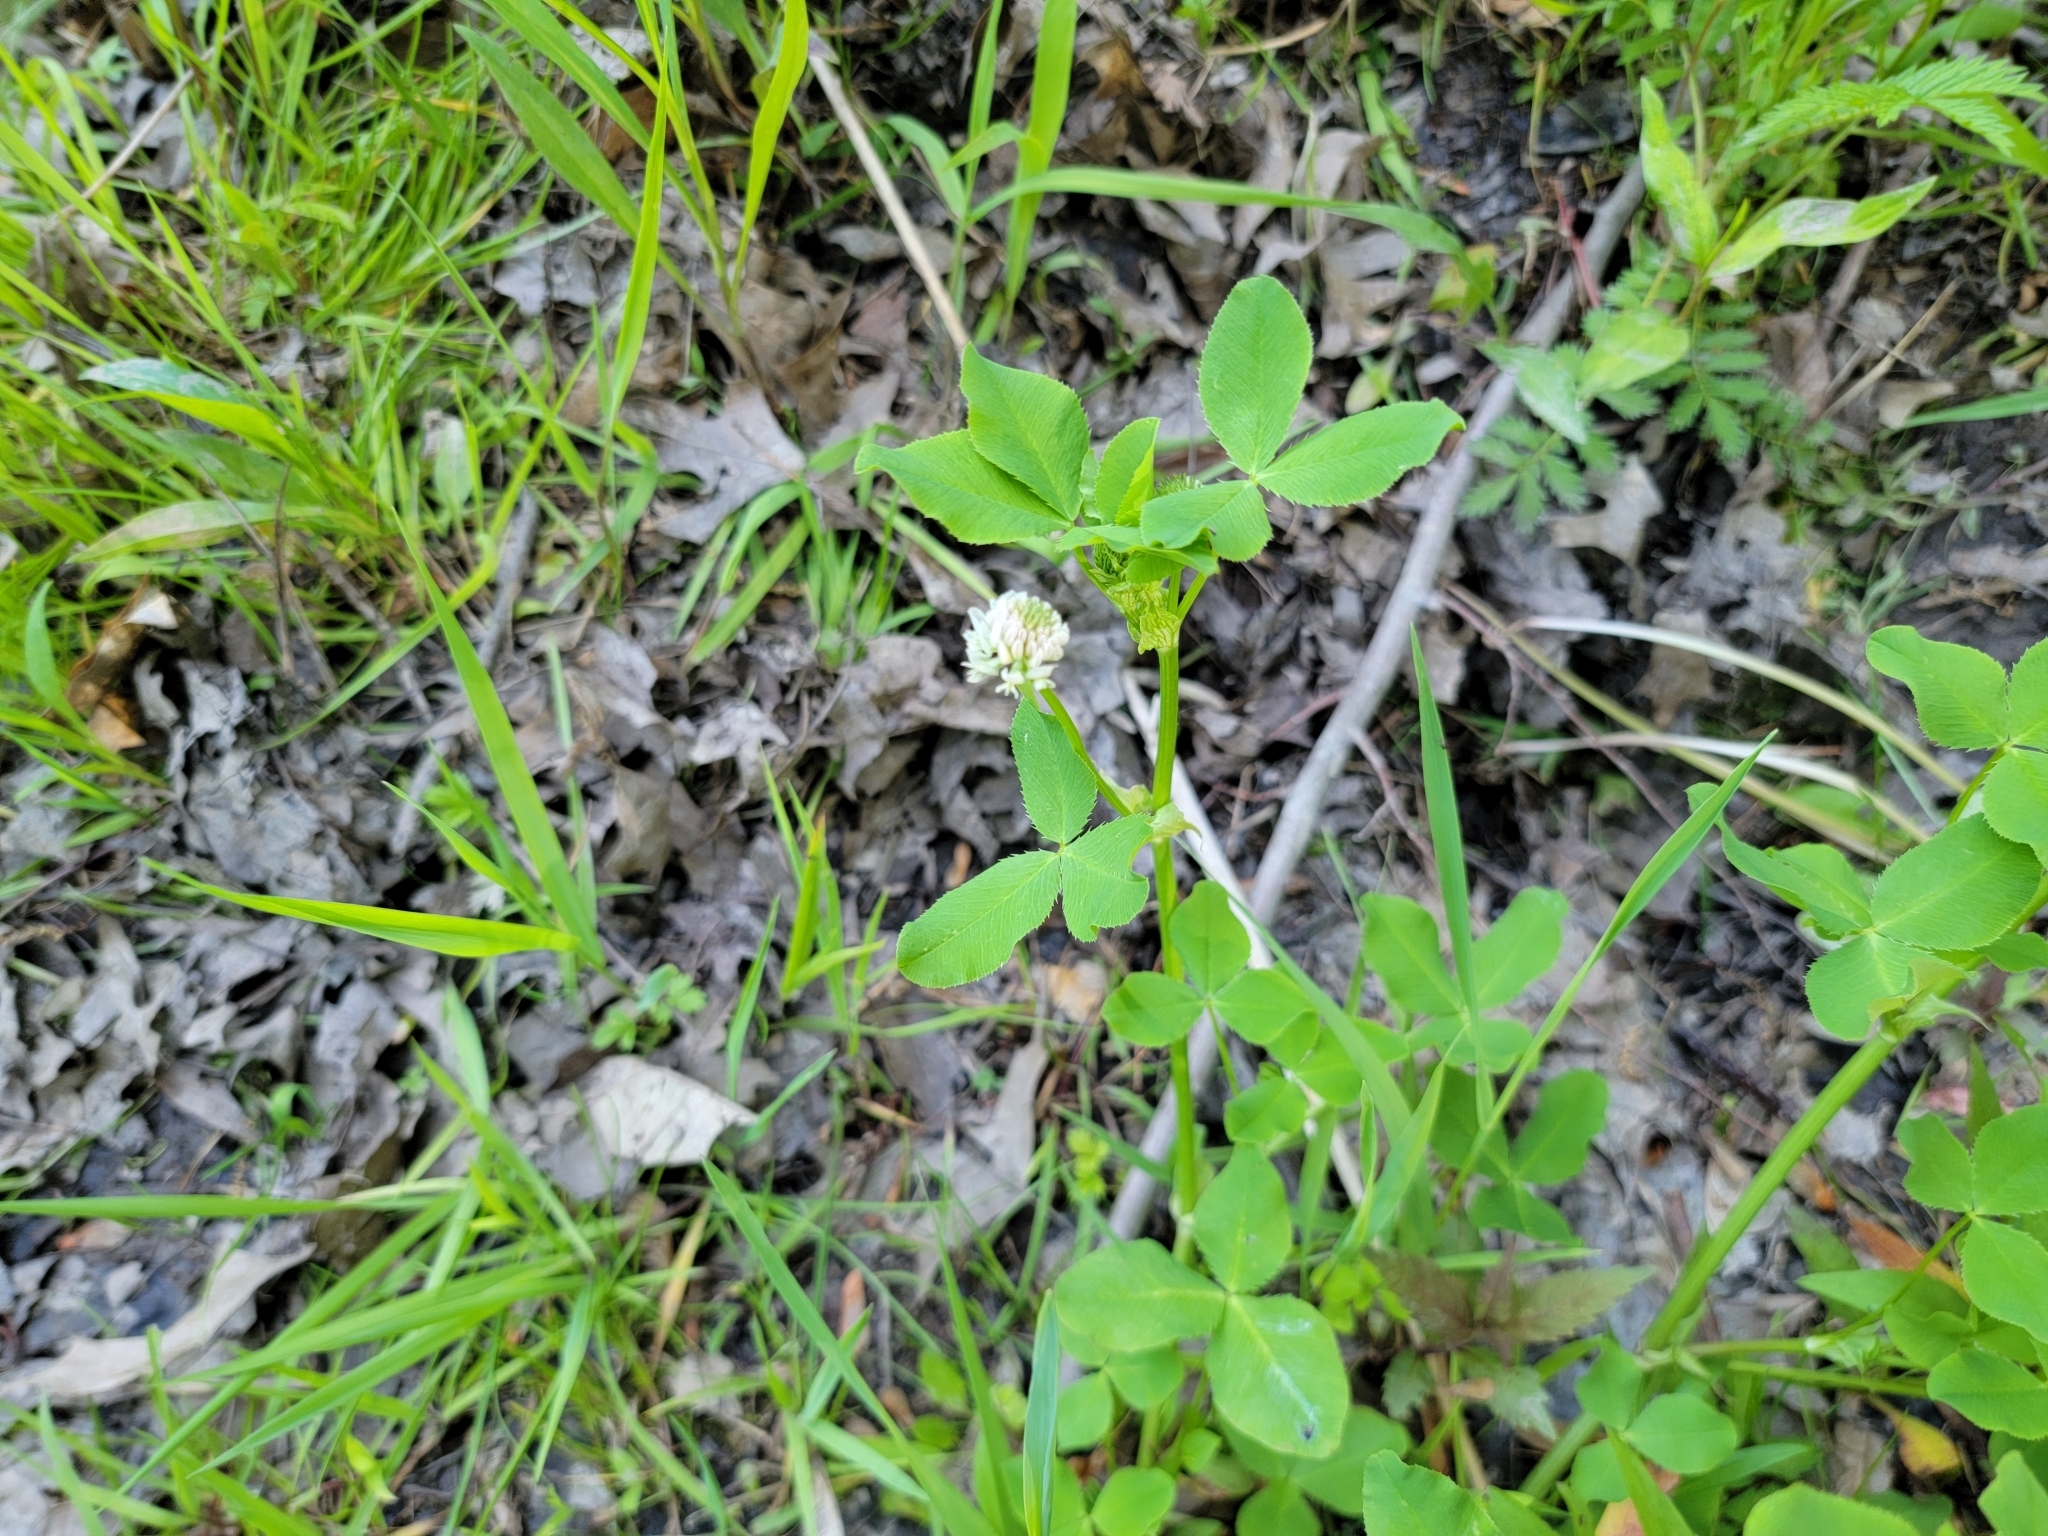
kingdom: Plantae
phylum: Tracheophyta
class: Magnoliopsida
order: Fabales
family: Fabaceae
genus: Trifolium
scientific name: Trifolium hybridum
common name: Alsike clover
